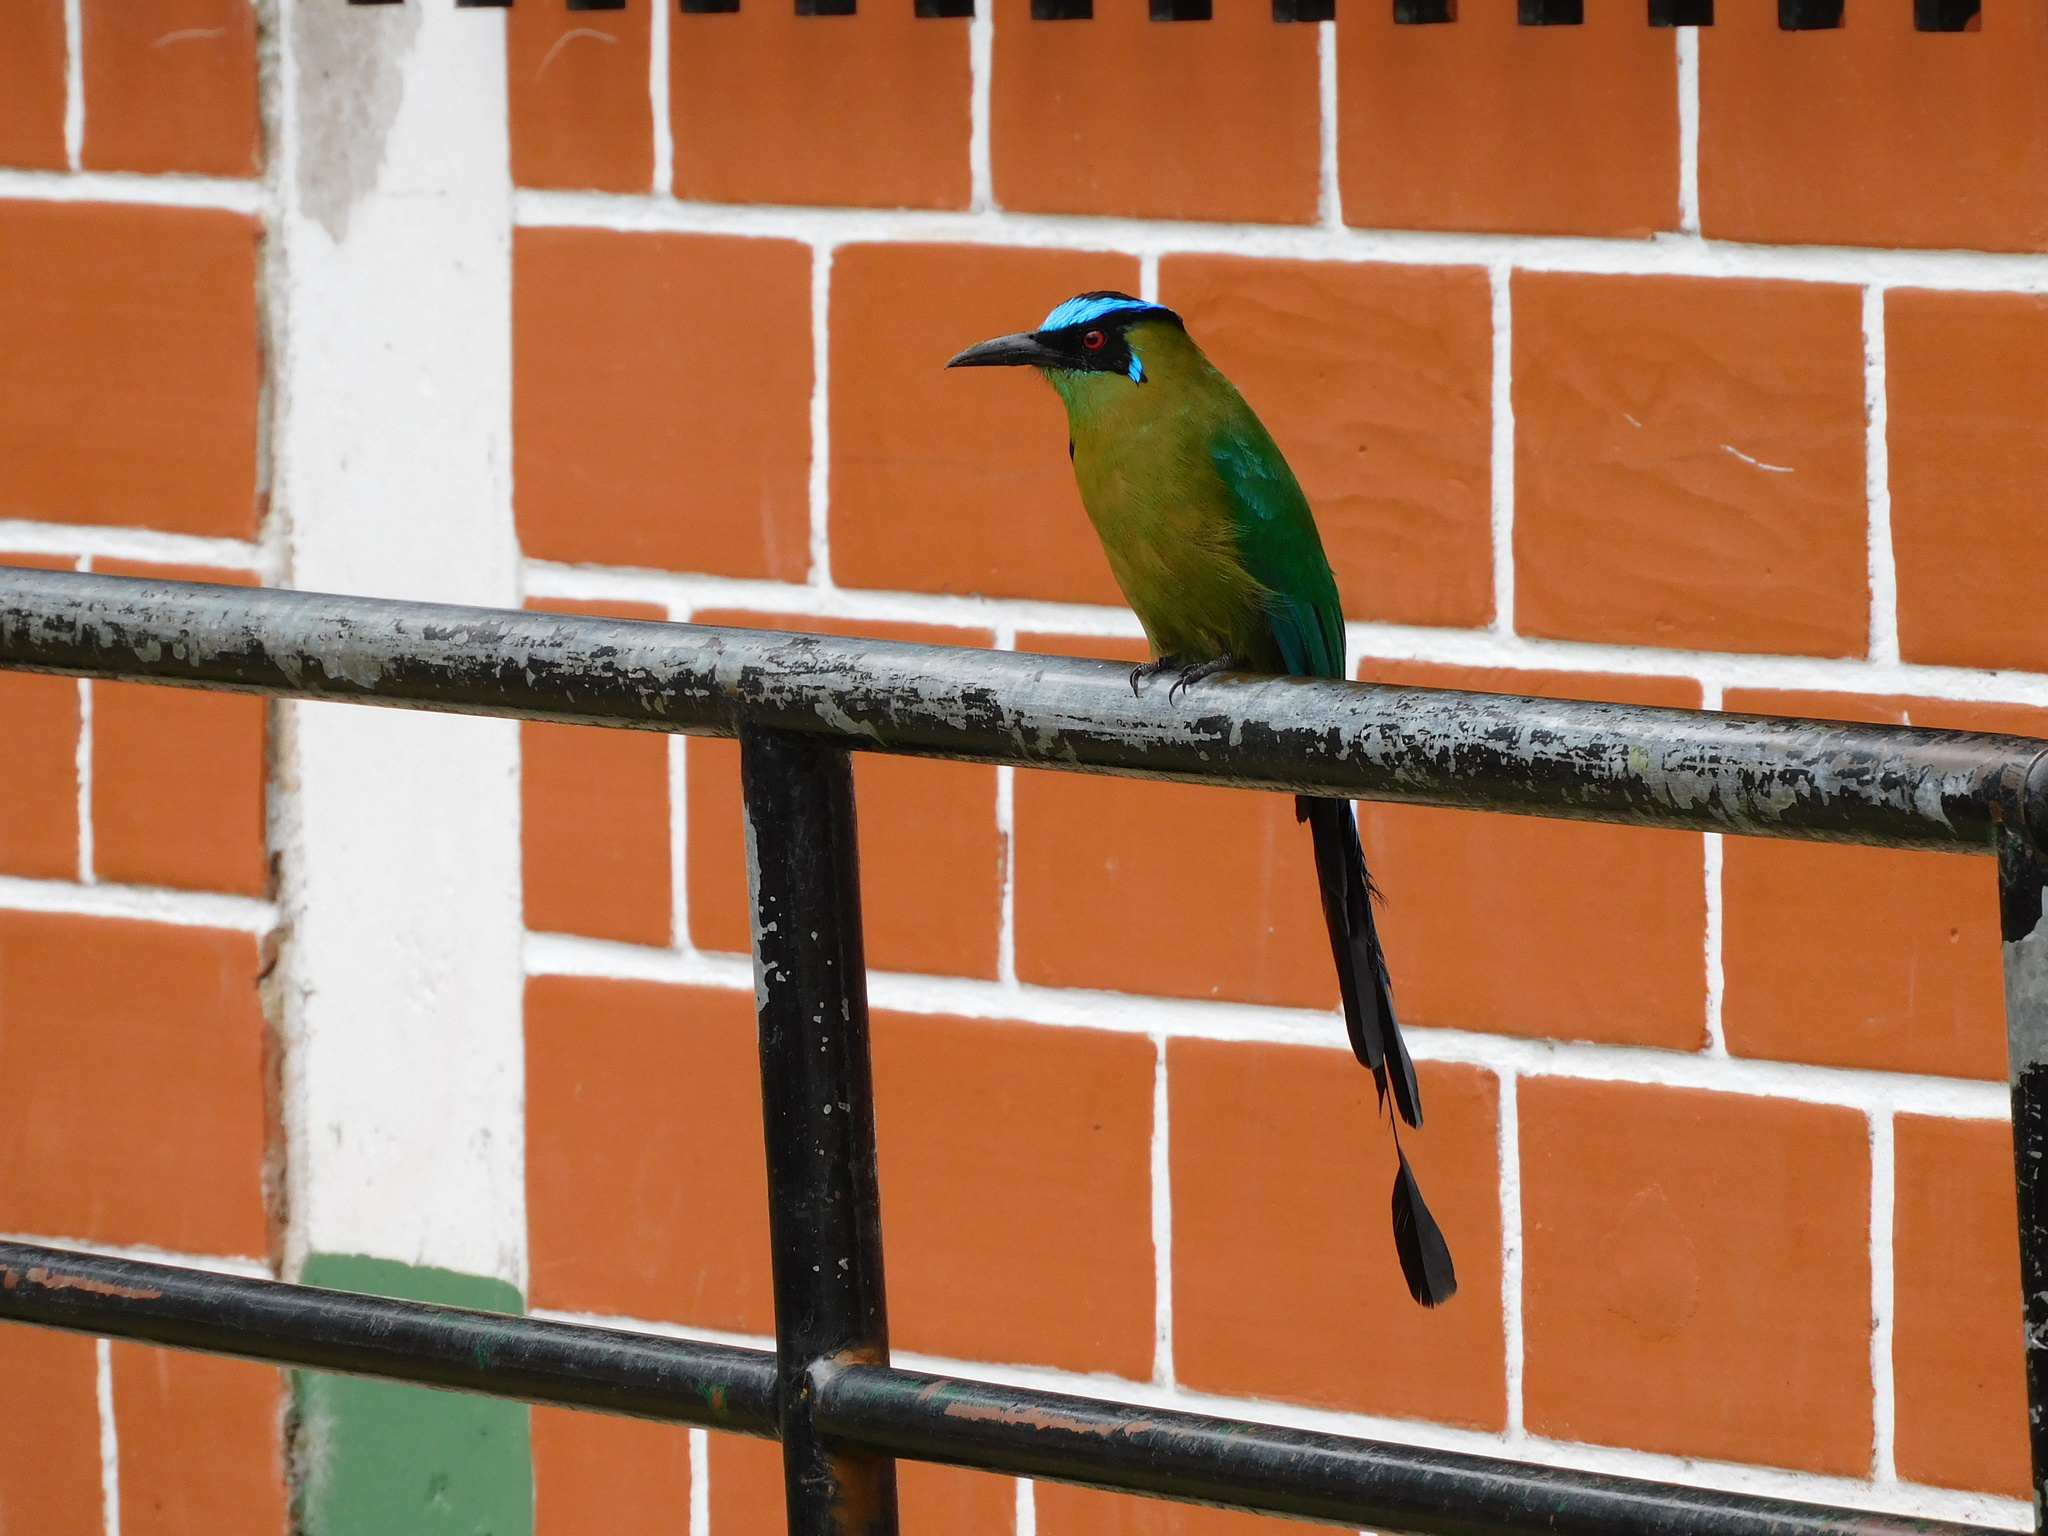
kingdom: Animalia
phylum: Chordata
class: Aves
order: Coraciiformes
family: Momotidae
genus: Momotus
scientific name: Momotus aequatorialis
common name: Andean motmot
